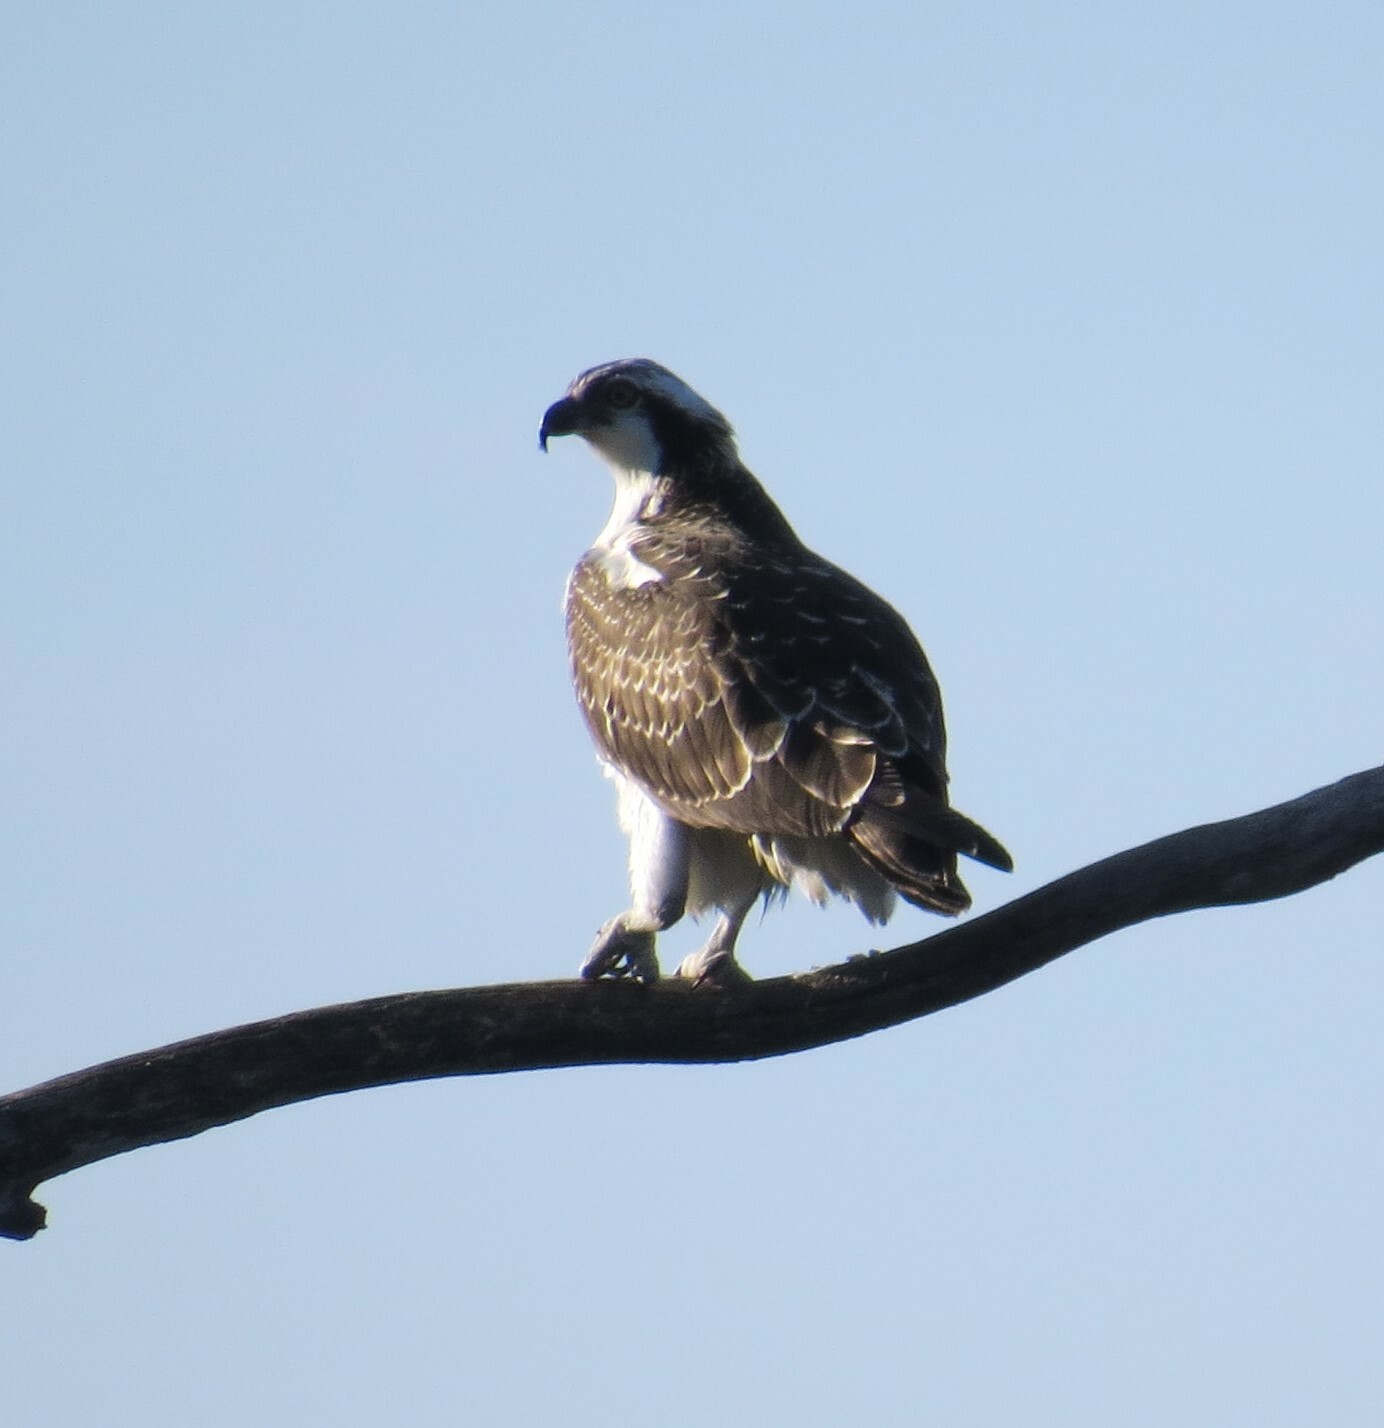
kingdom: Animalia
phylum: Chordata
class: Aves
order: Accipitriformes
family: Pandionidae
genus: Pandion
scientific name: Pandion haliaetus
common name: Osprey
